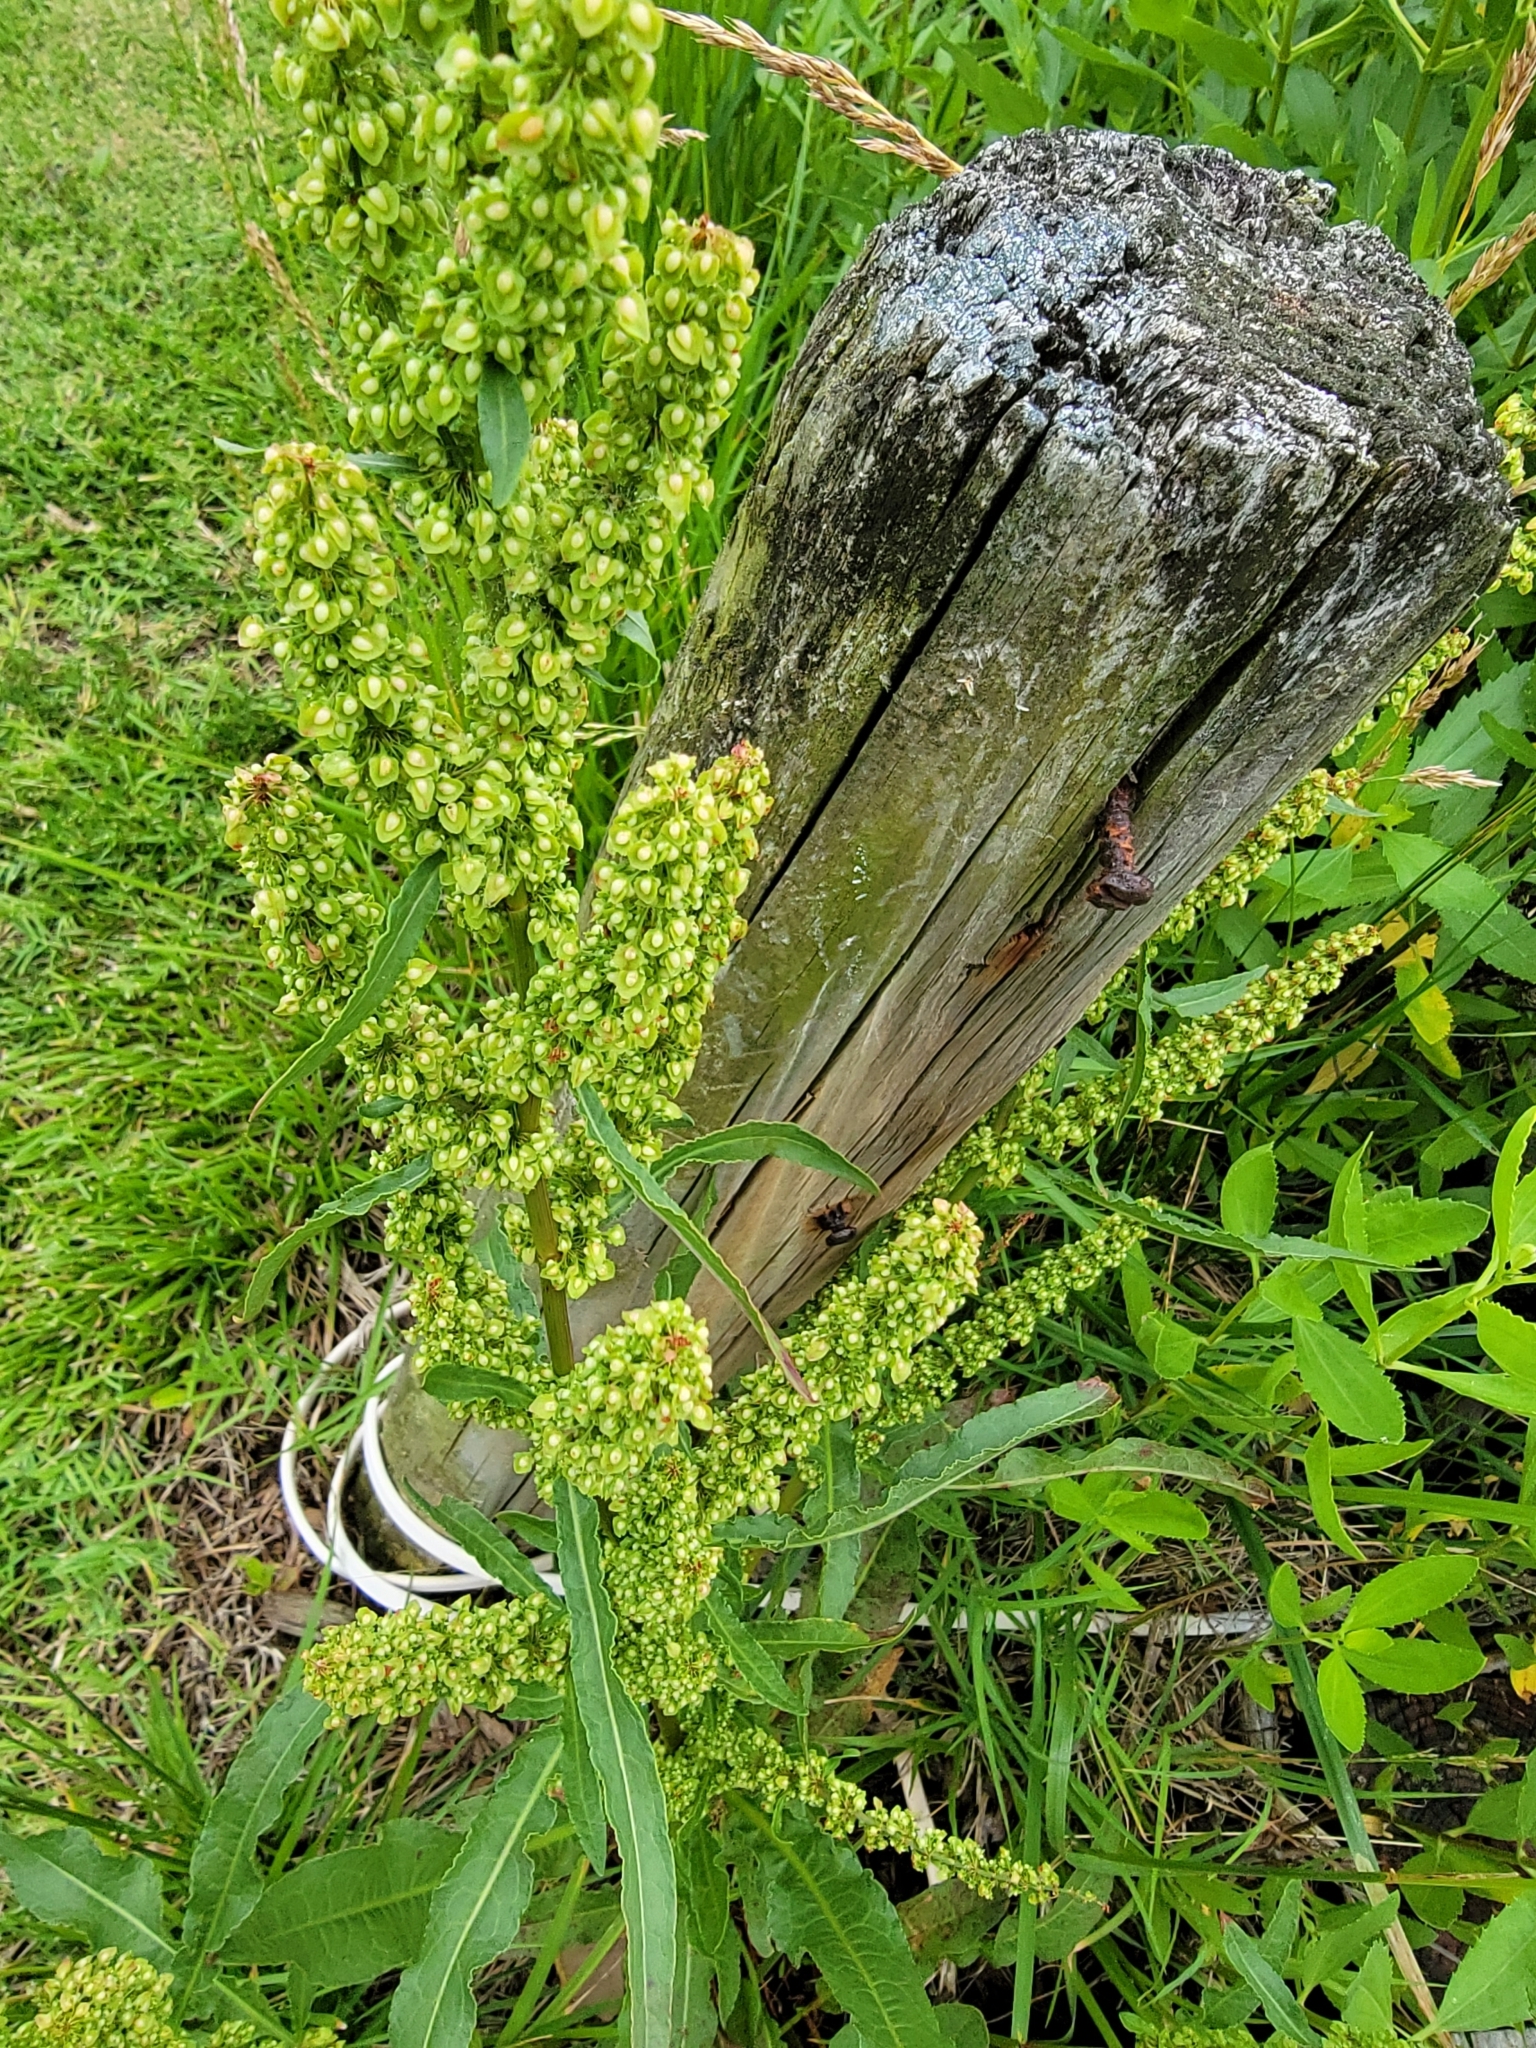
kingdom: Plantae
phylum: Tracheophyta
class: Magnoliopsida
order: Caryophyllales
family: Polygonaceae
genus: Rumex
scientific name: Rumex crispus
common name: Curled dock
